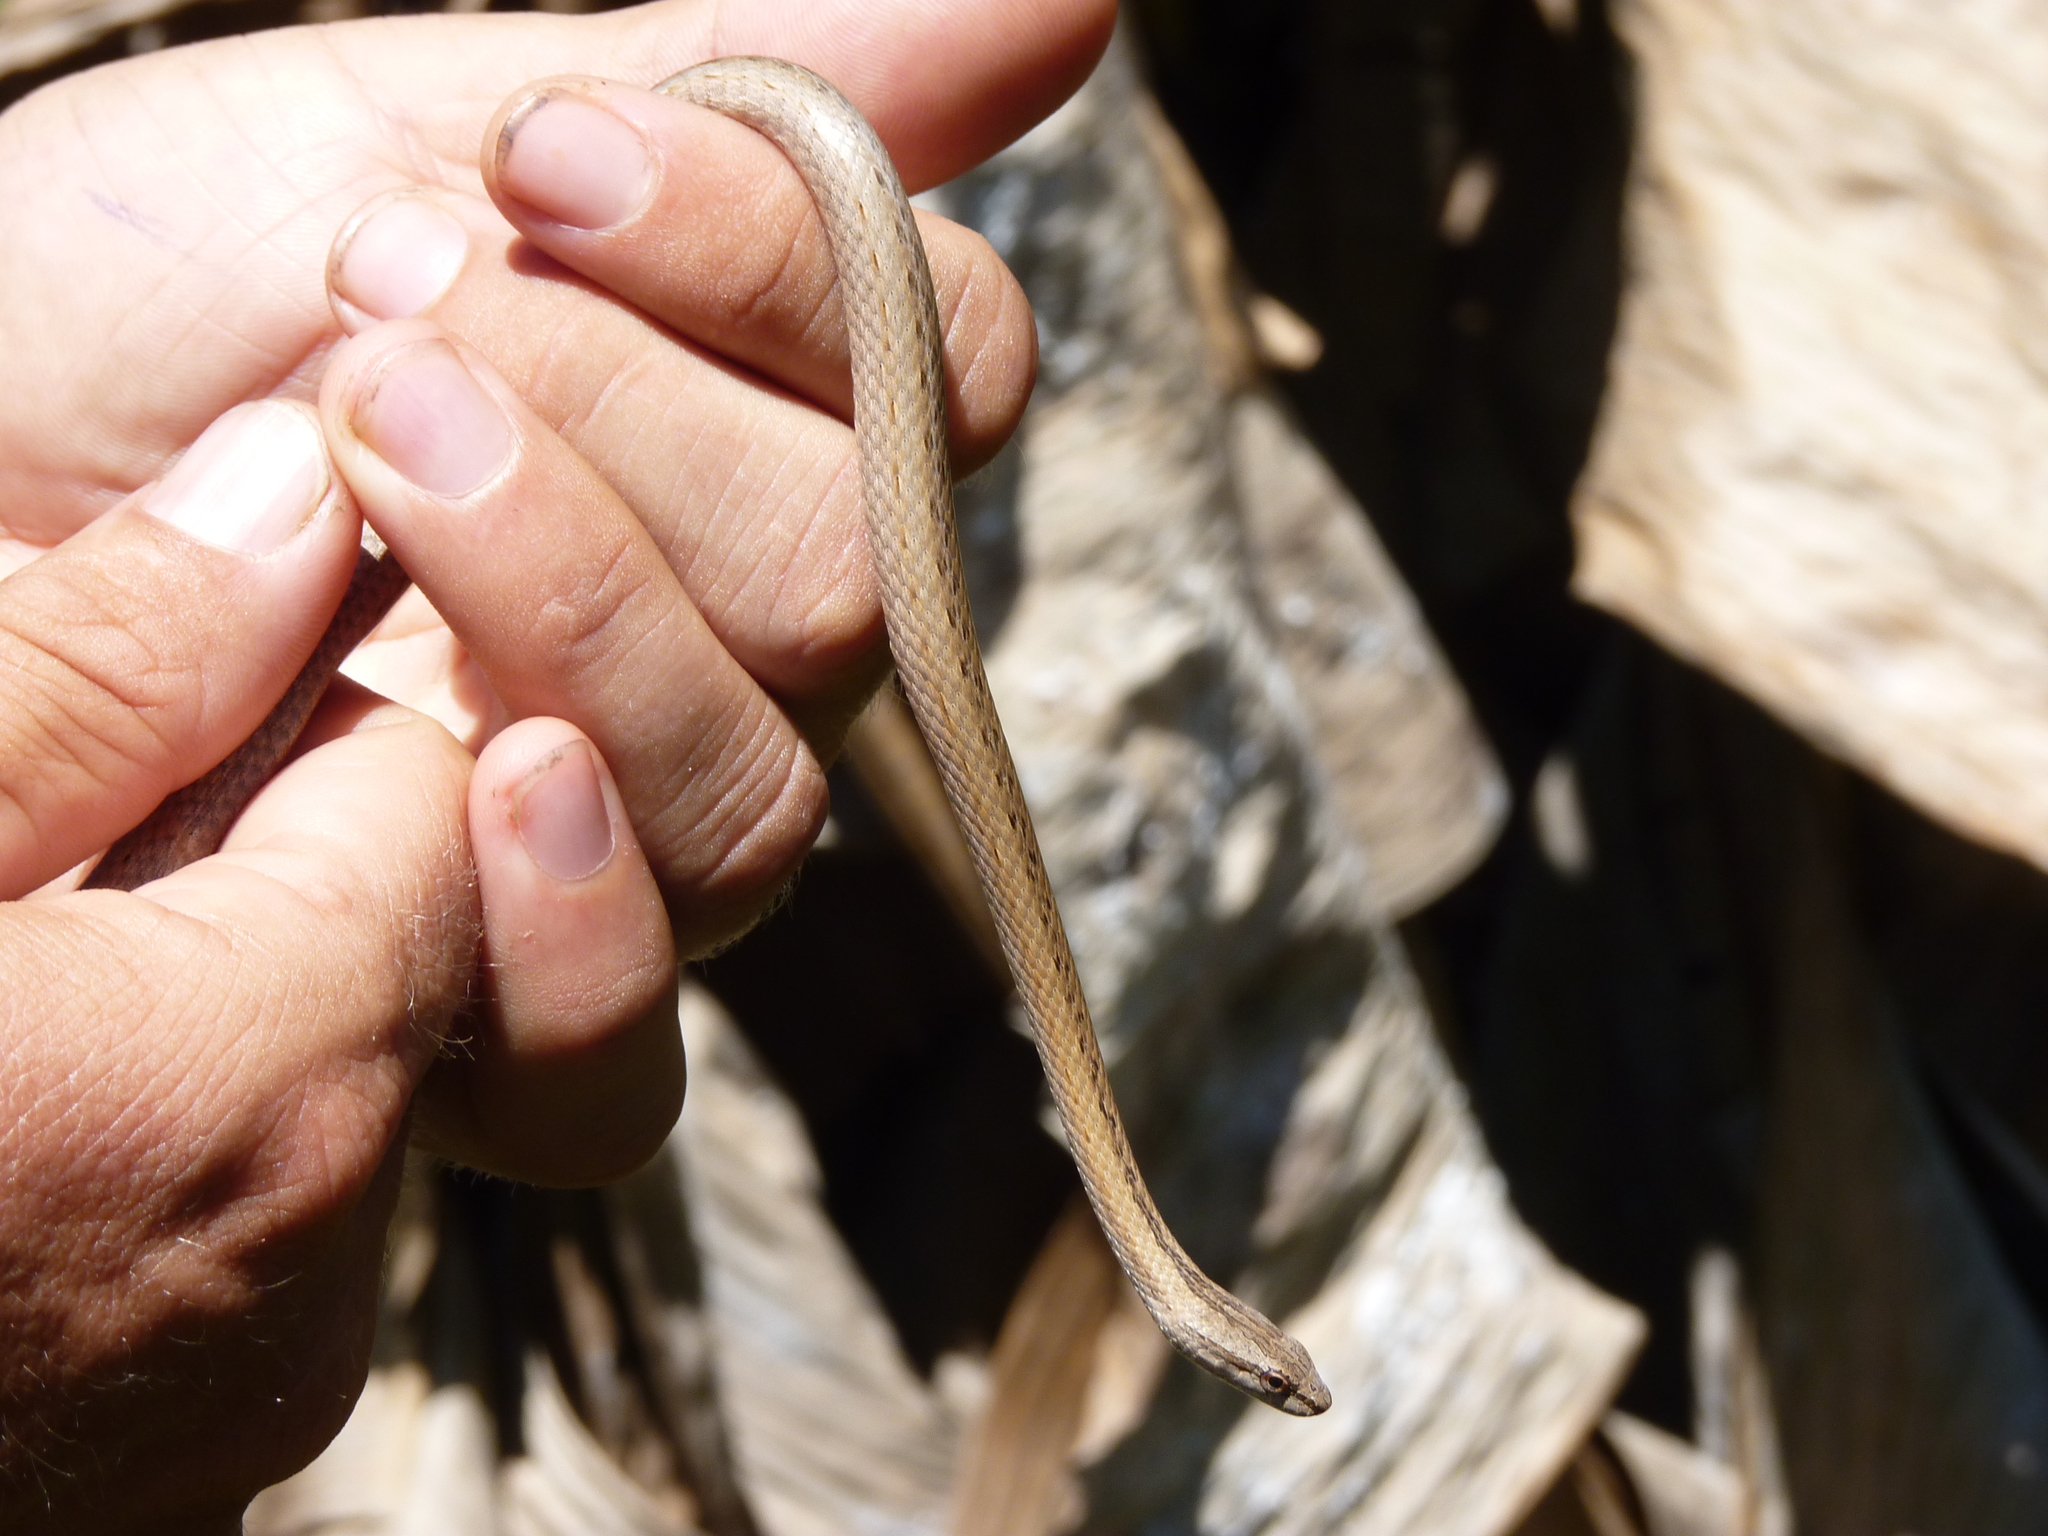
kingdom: Animalia
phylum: Chordata
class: Squamata
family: Psammophiidae
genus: Mimophis
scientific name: Mimophis occultus
